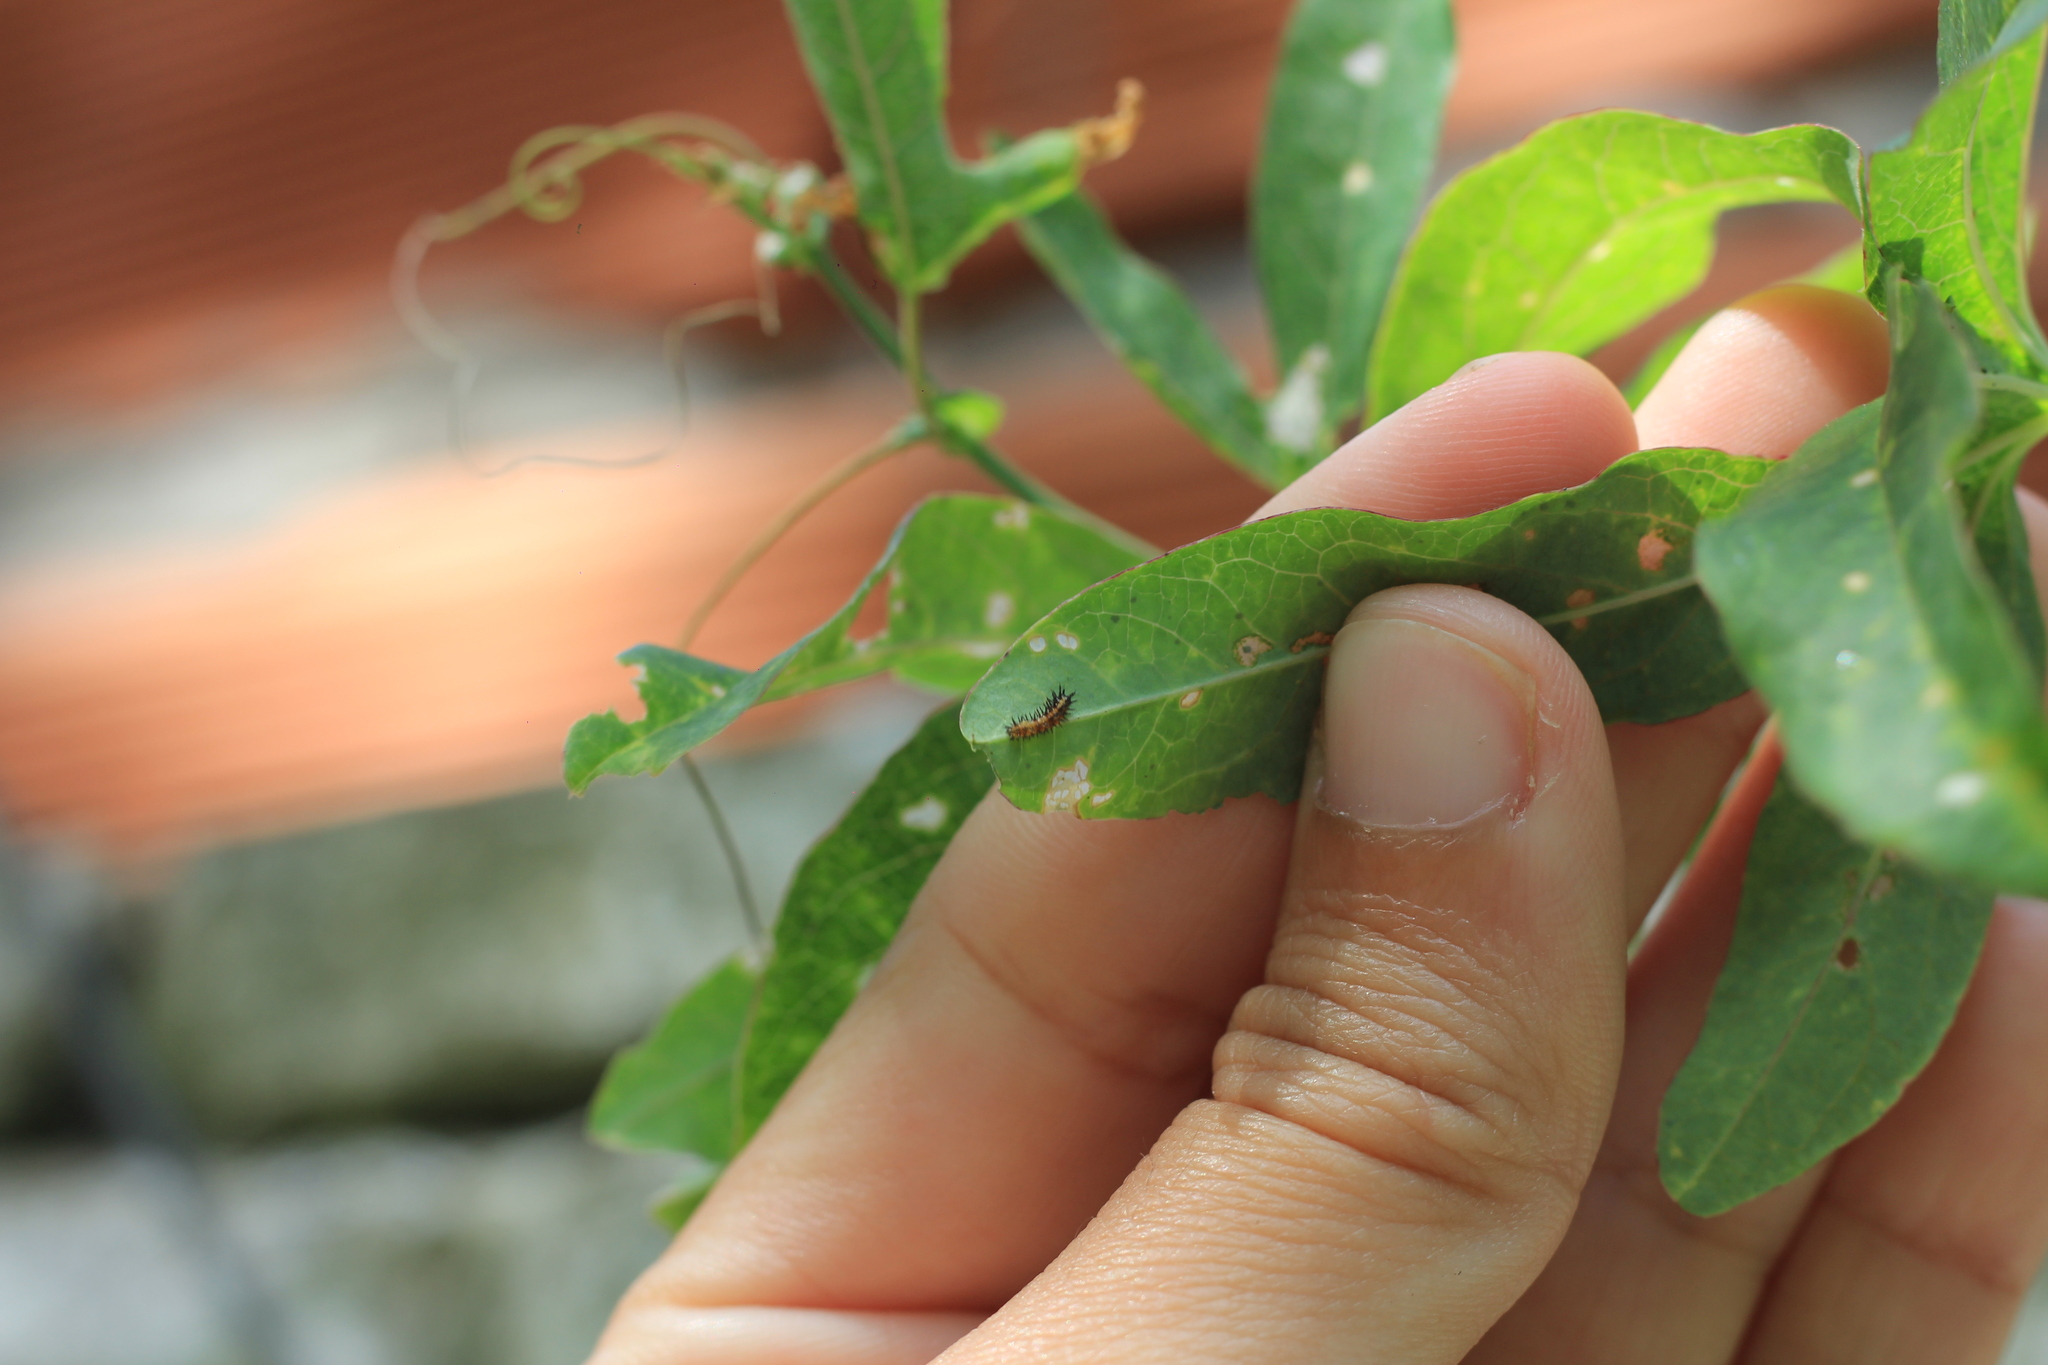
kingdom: Animalia
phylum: Arthropoda
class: Insecta
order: Lepidoptera
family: Nymphalidae
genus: Dione
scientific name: Dione vanillae
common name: Gulf fritillary
